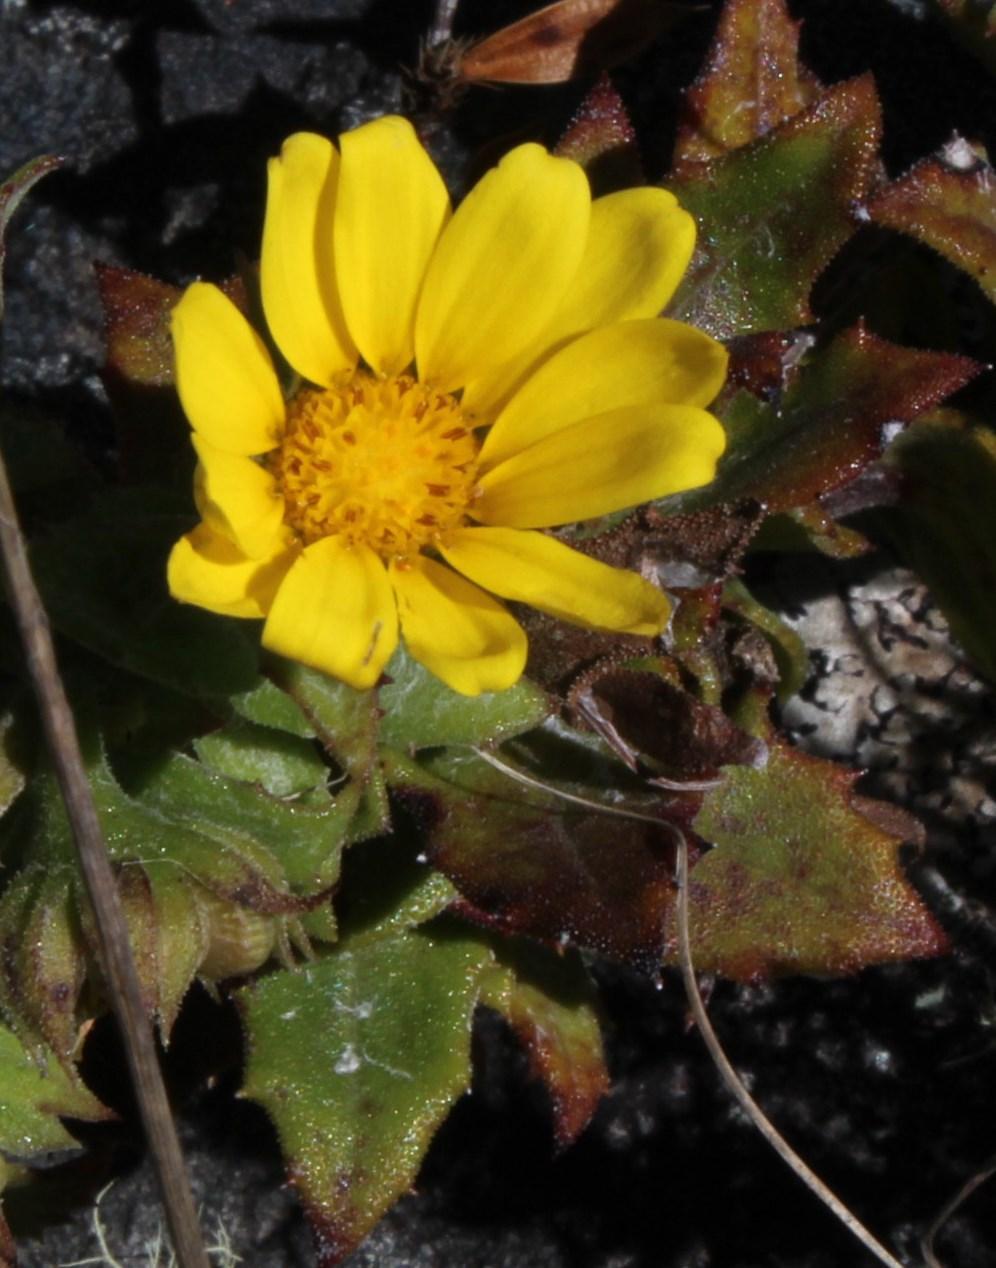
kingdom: Plantae
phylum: Tracheophyta
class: Magnoliopsida
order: Asterales
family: Asteraceae
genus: Osteospermum
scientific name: Osteospermum ilicifolium
